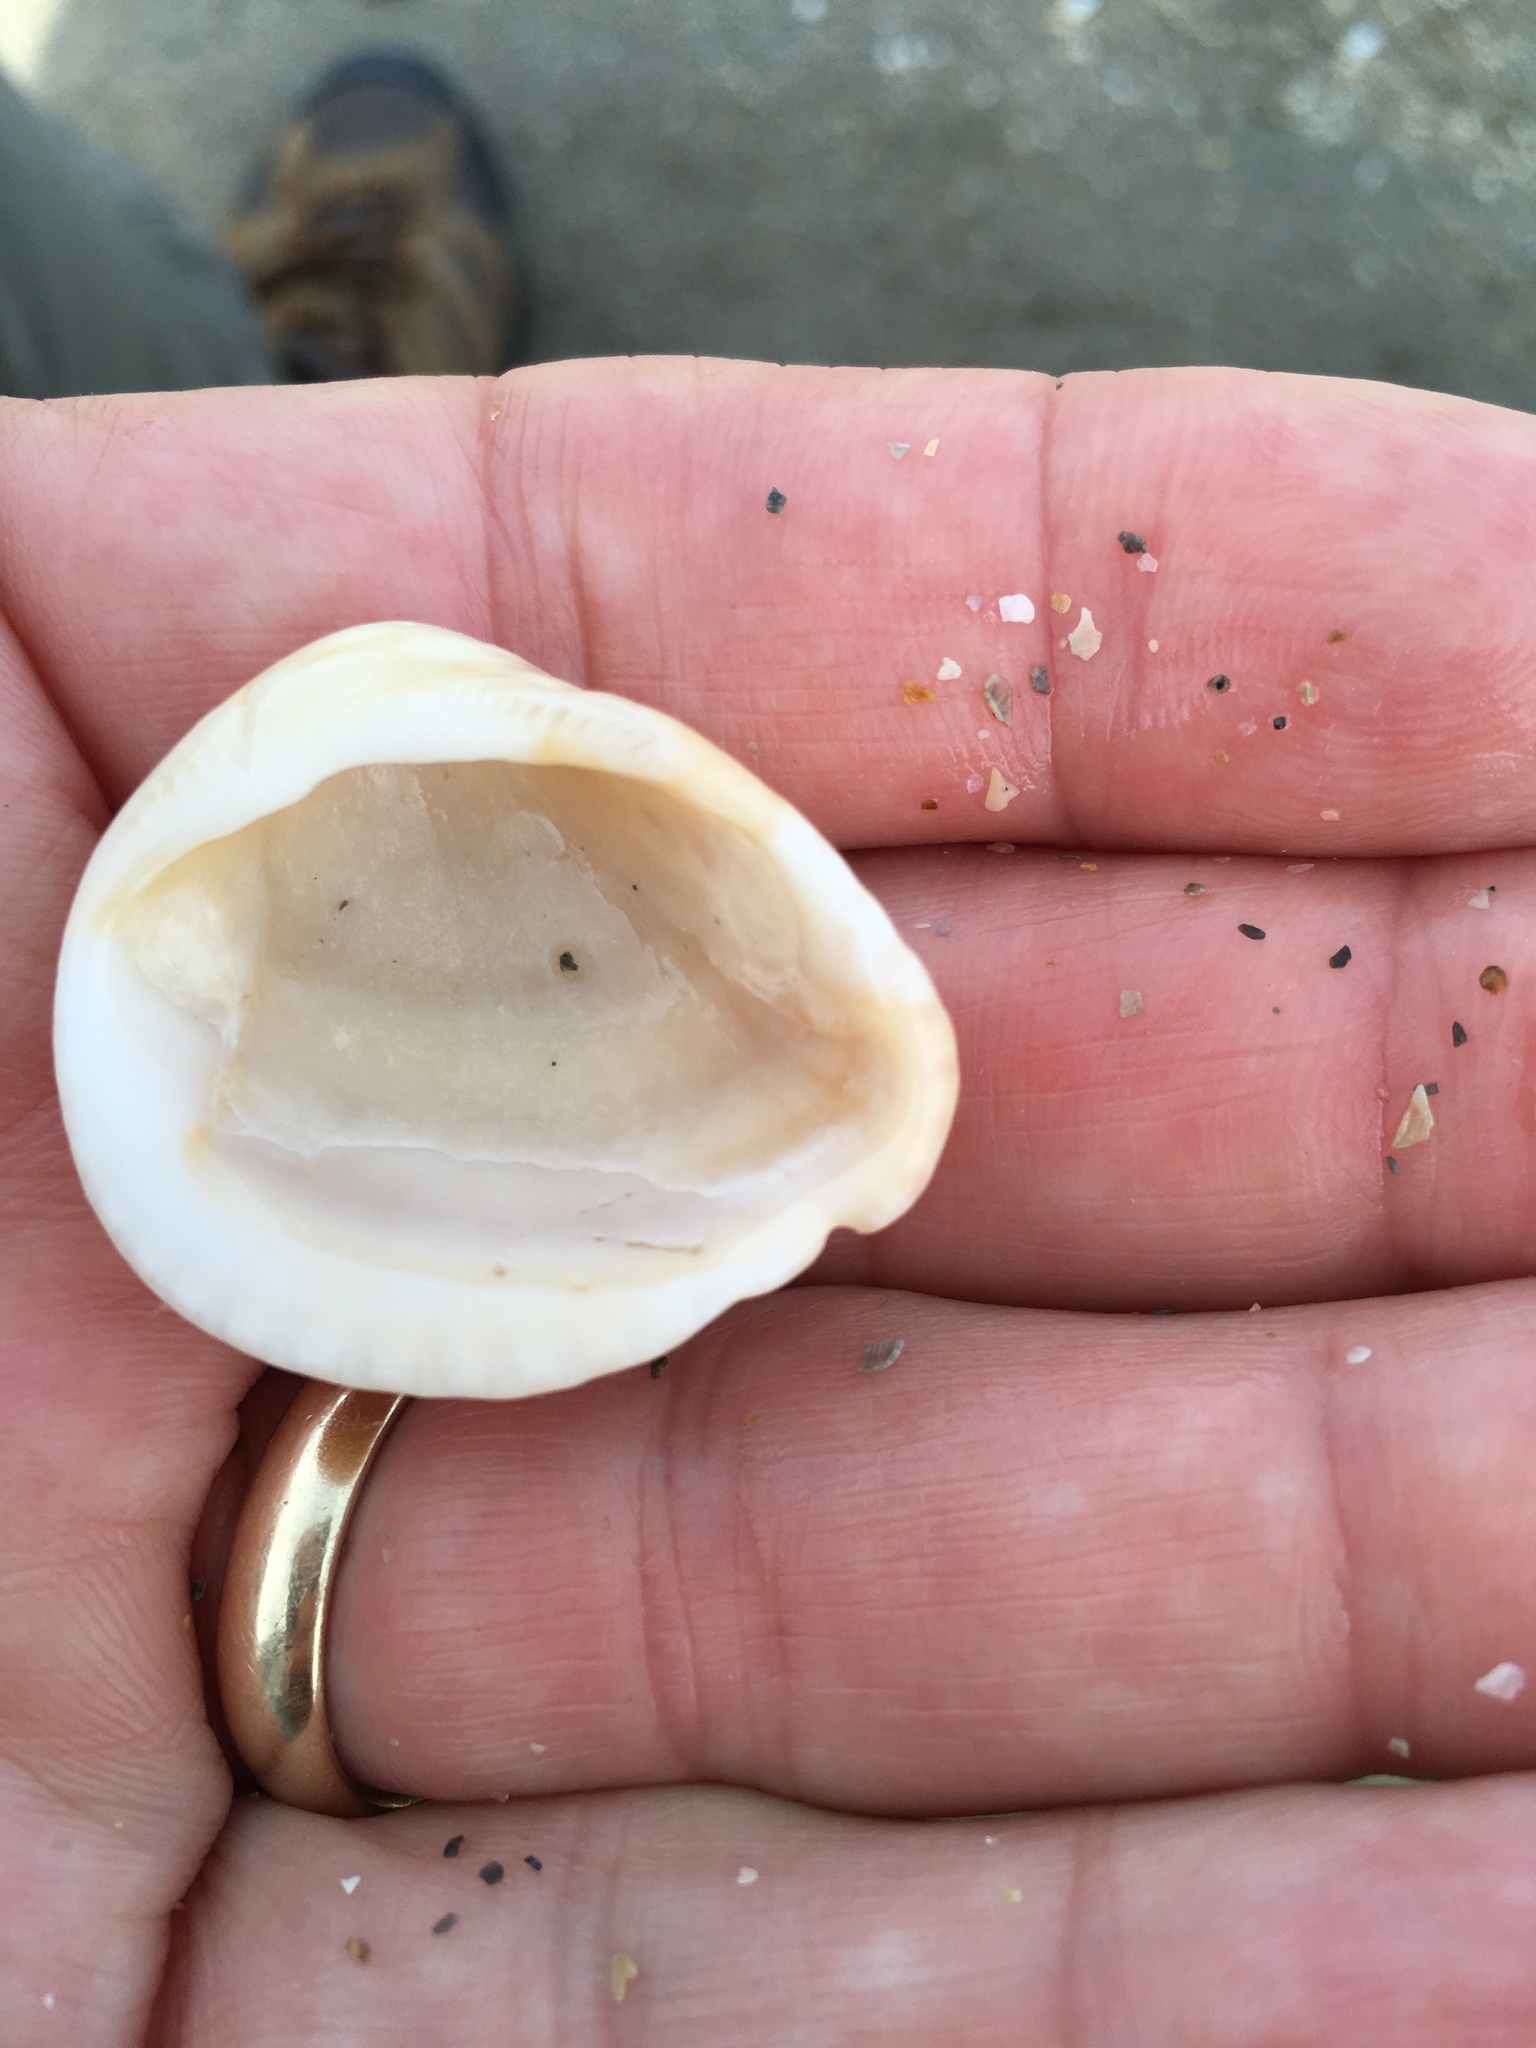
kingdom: Animalia
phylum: Mollusca
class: Bivalvia
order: Arcida
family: Noetiidae
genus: Noetia
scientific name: Noetia ponderosa
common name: Ponderous ark
